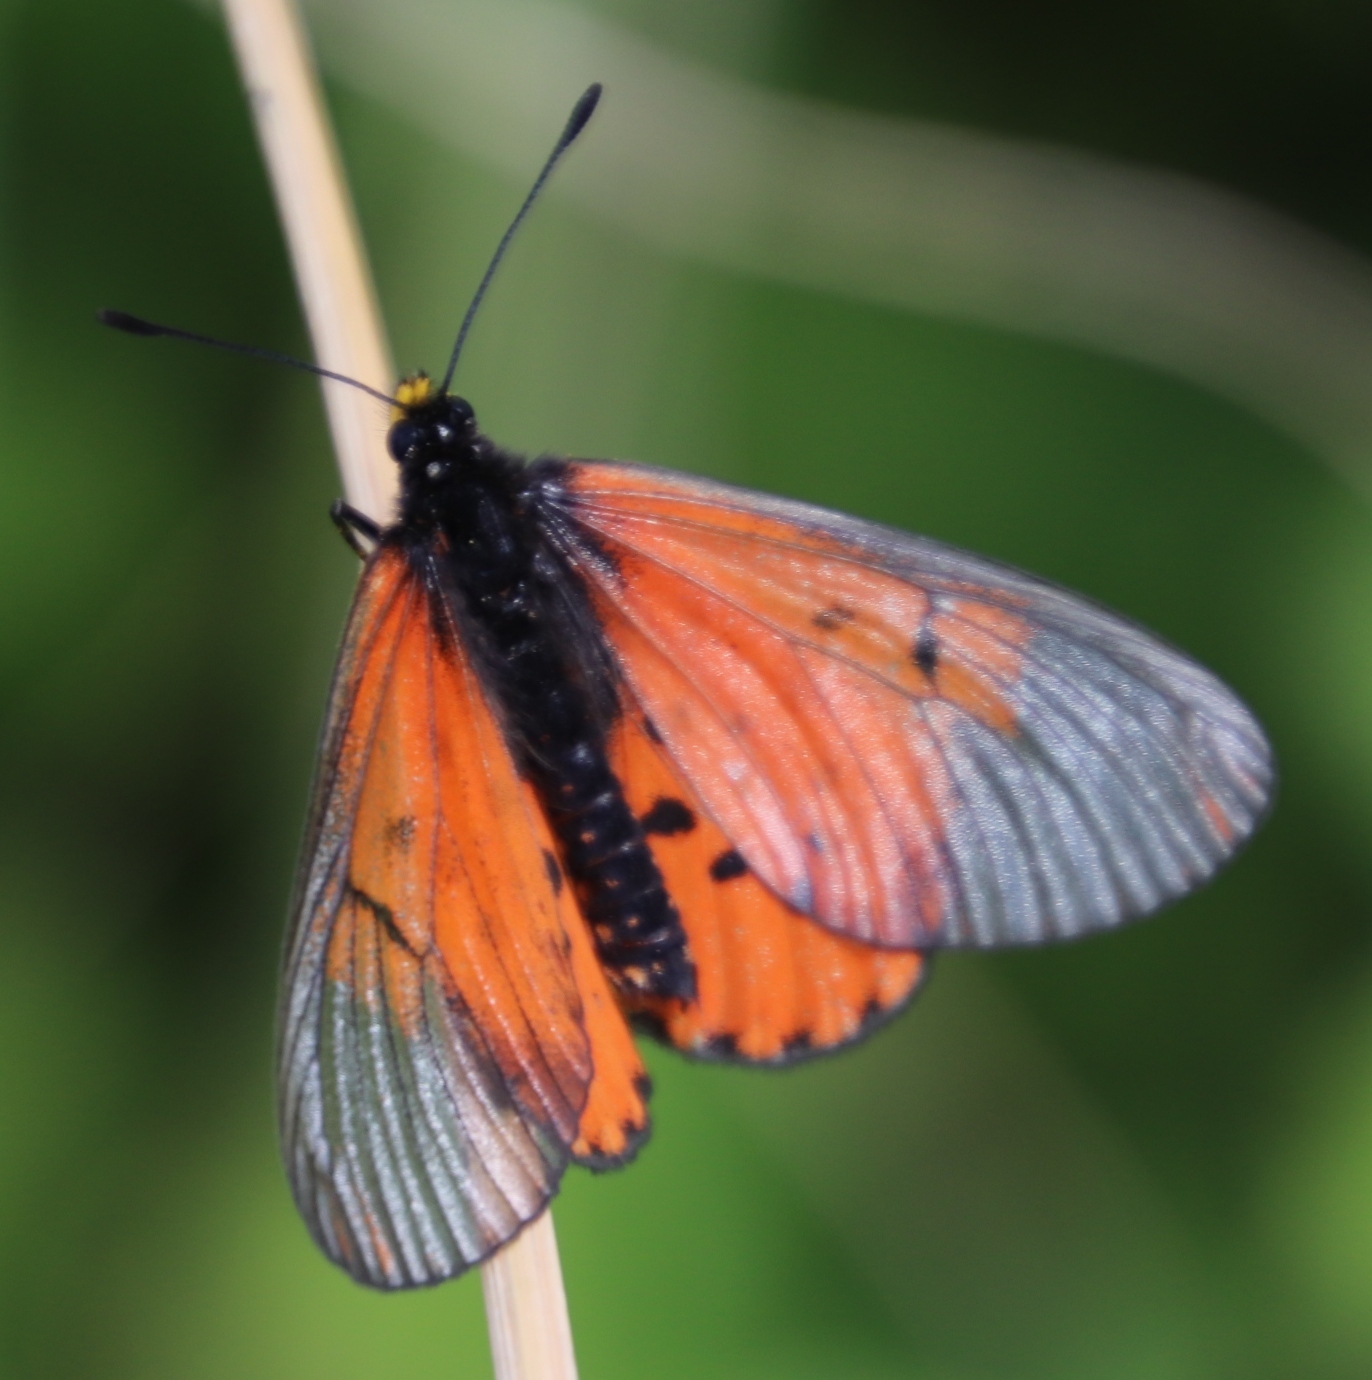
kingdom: Animalia
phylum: Arthropoda
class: Insecta
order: Lepidoptera
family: Nymphalidae
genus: Acraea
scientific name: Acraea horta
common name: Garden acraea
